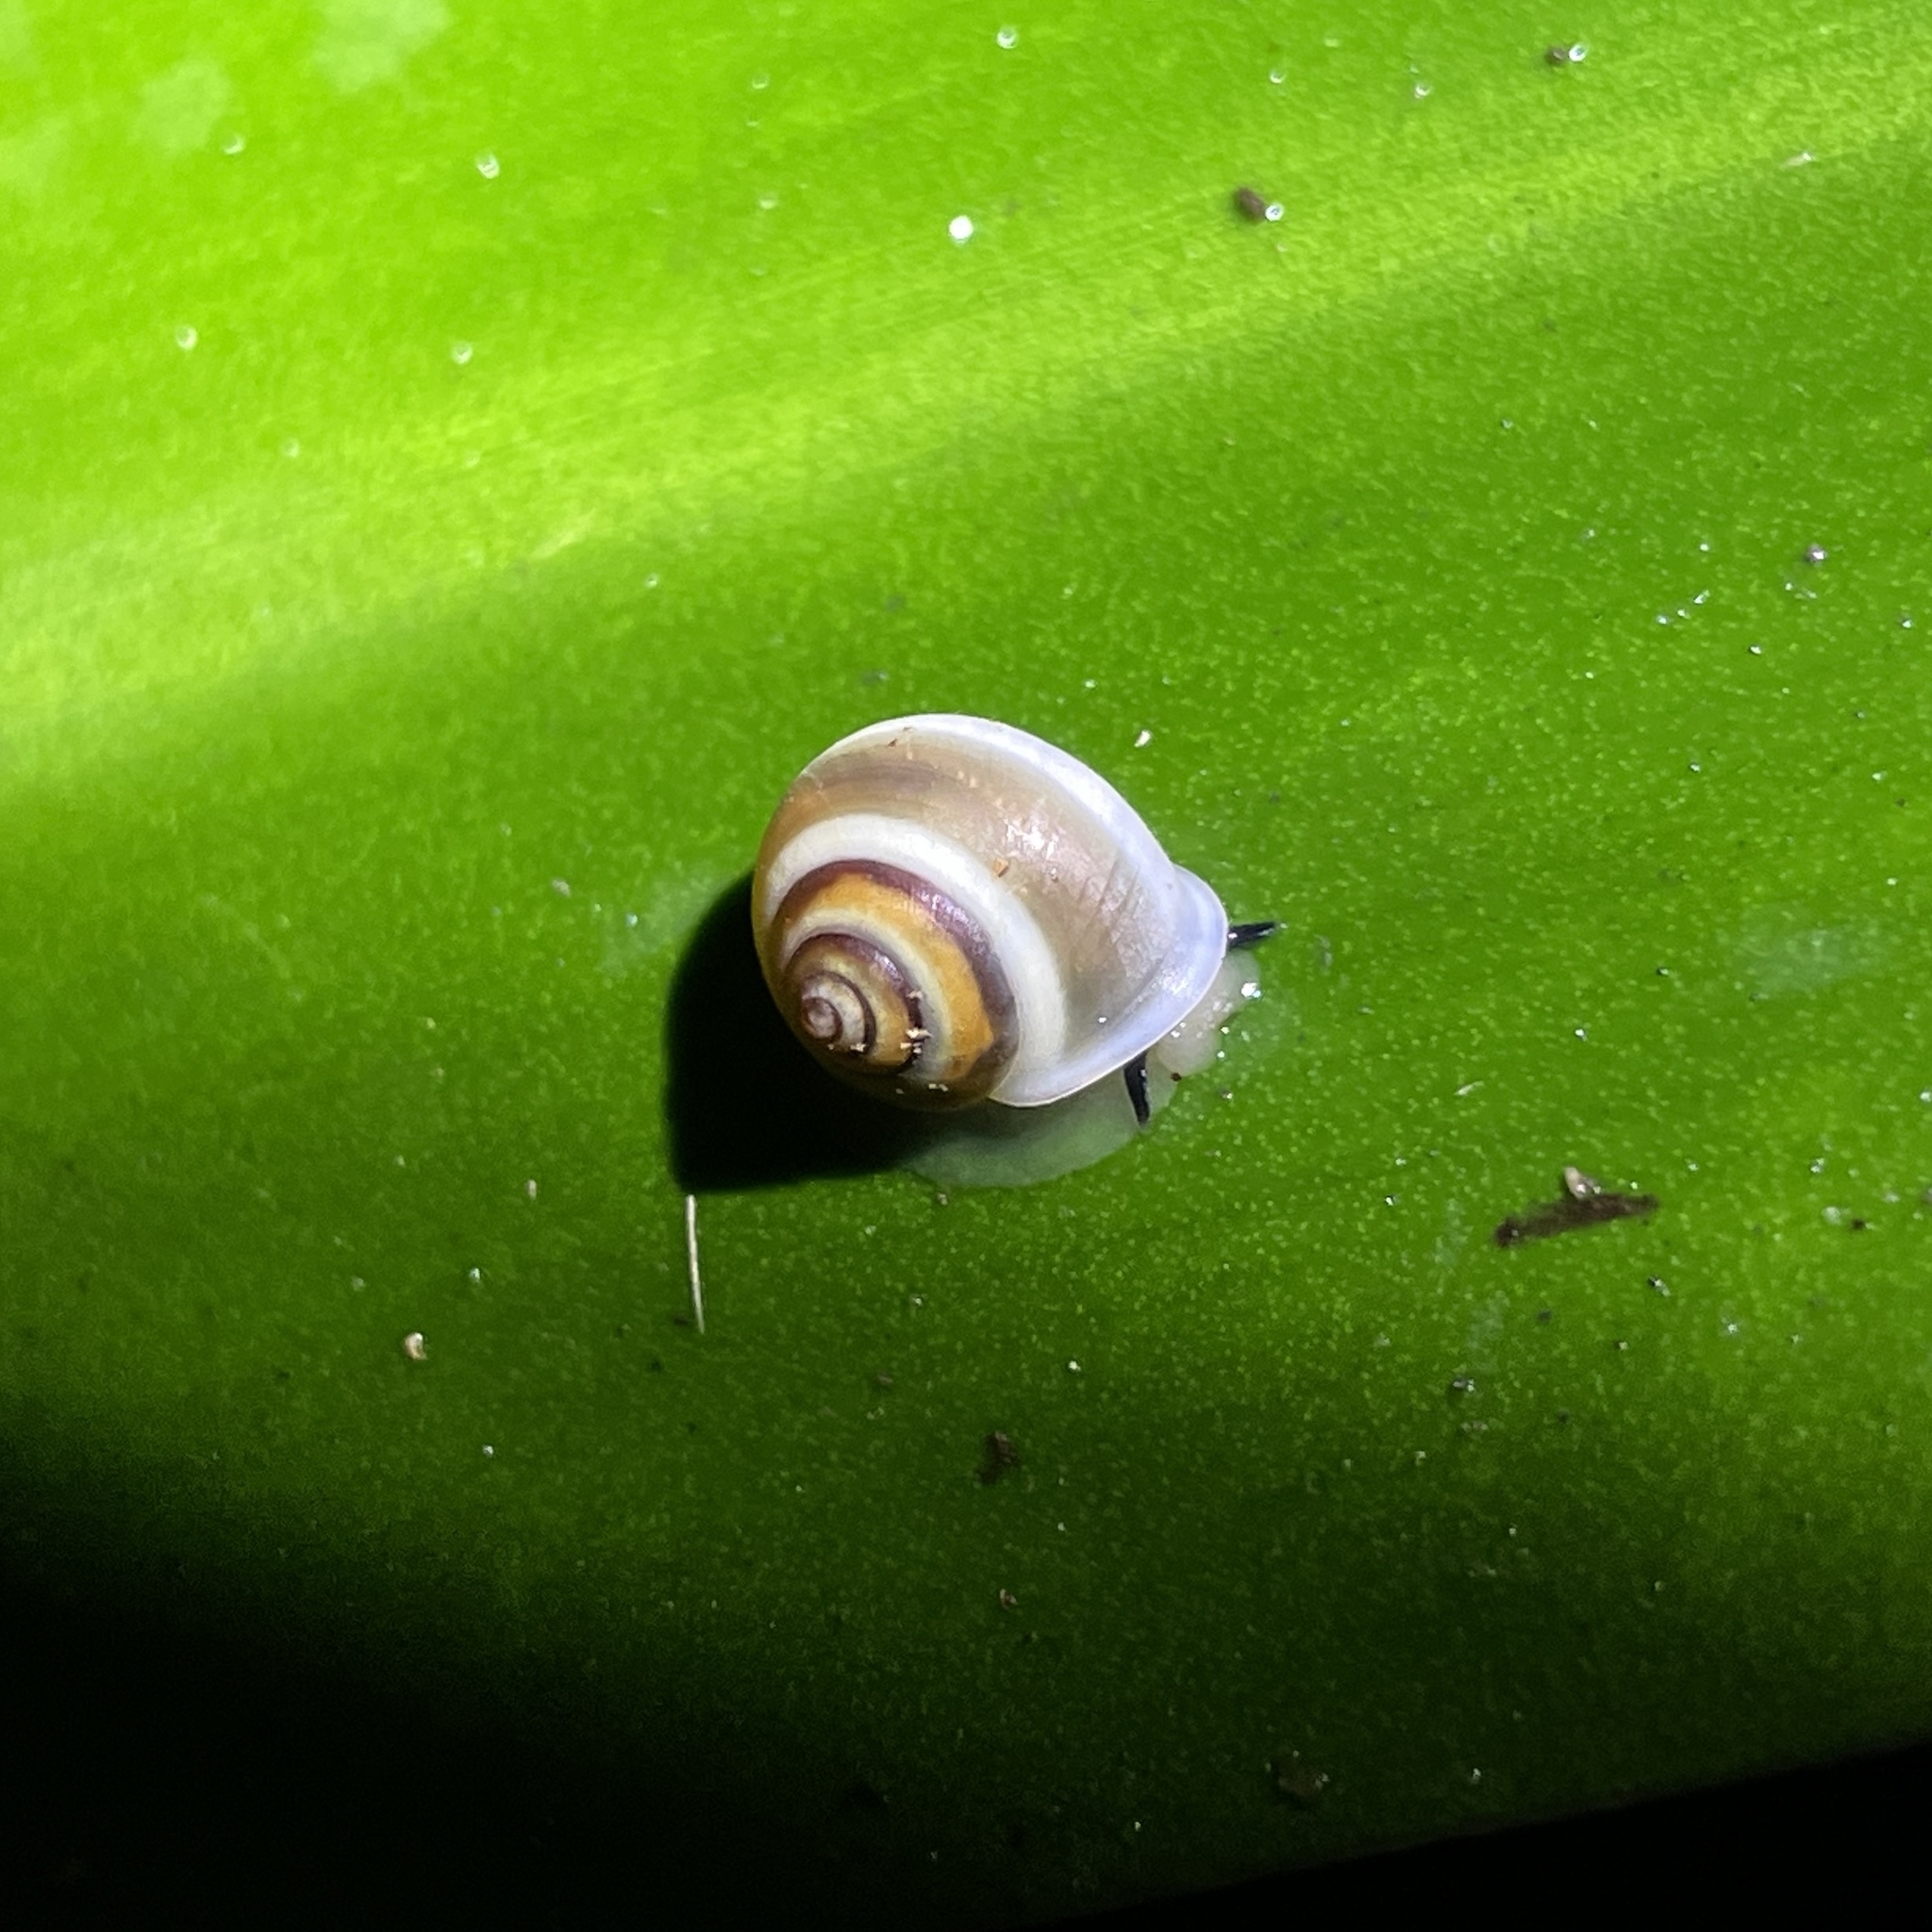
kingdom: Animalia
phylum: Mollusca
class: Gastropoda
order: Cycloneritida
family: Helicinidae
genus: Helicina
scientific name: Helicina nemoralis
